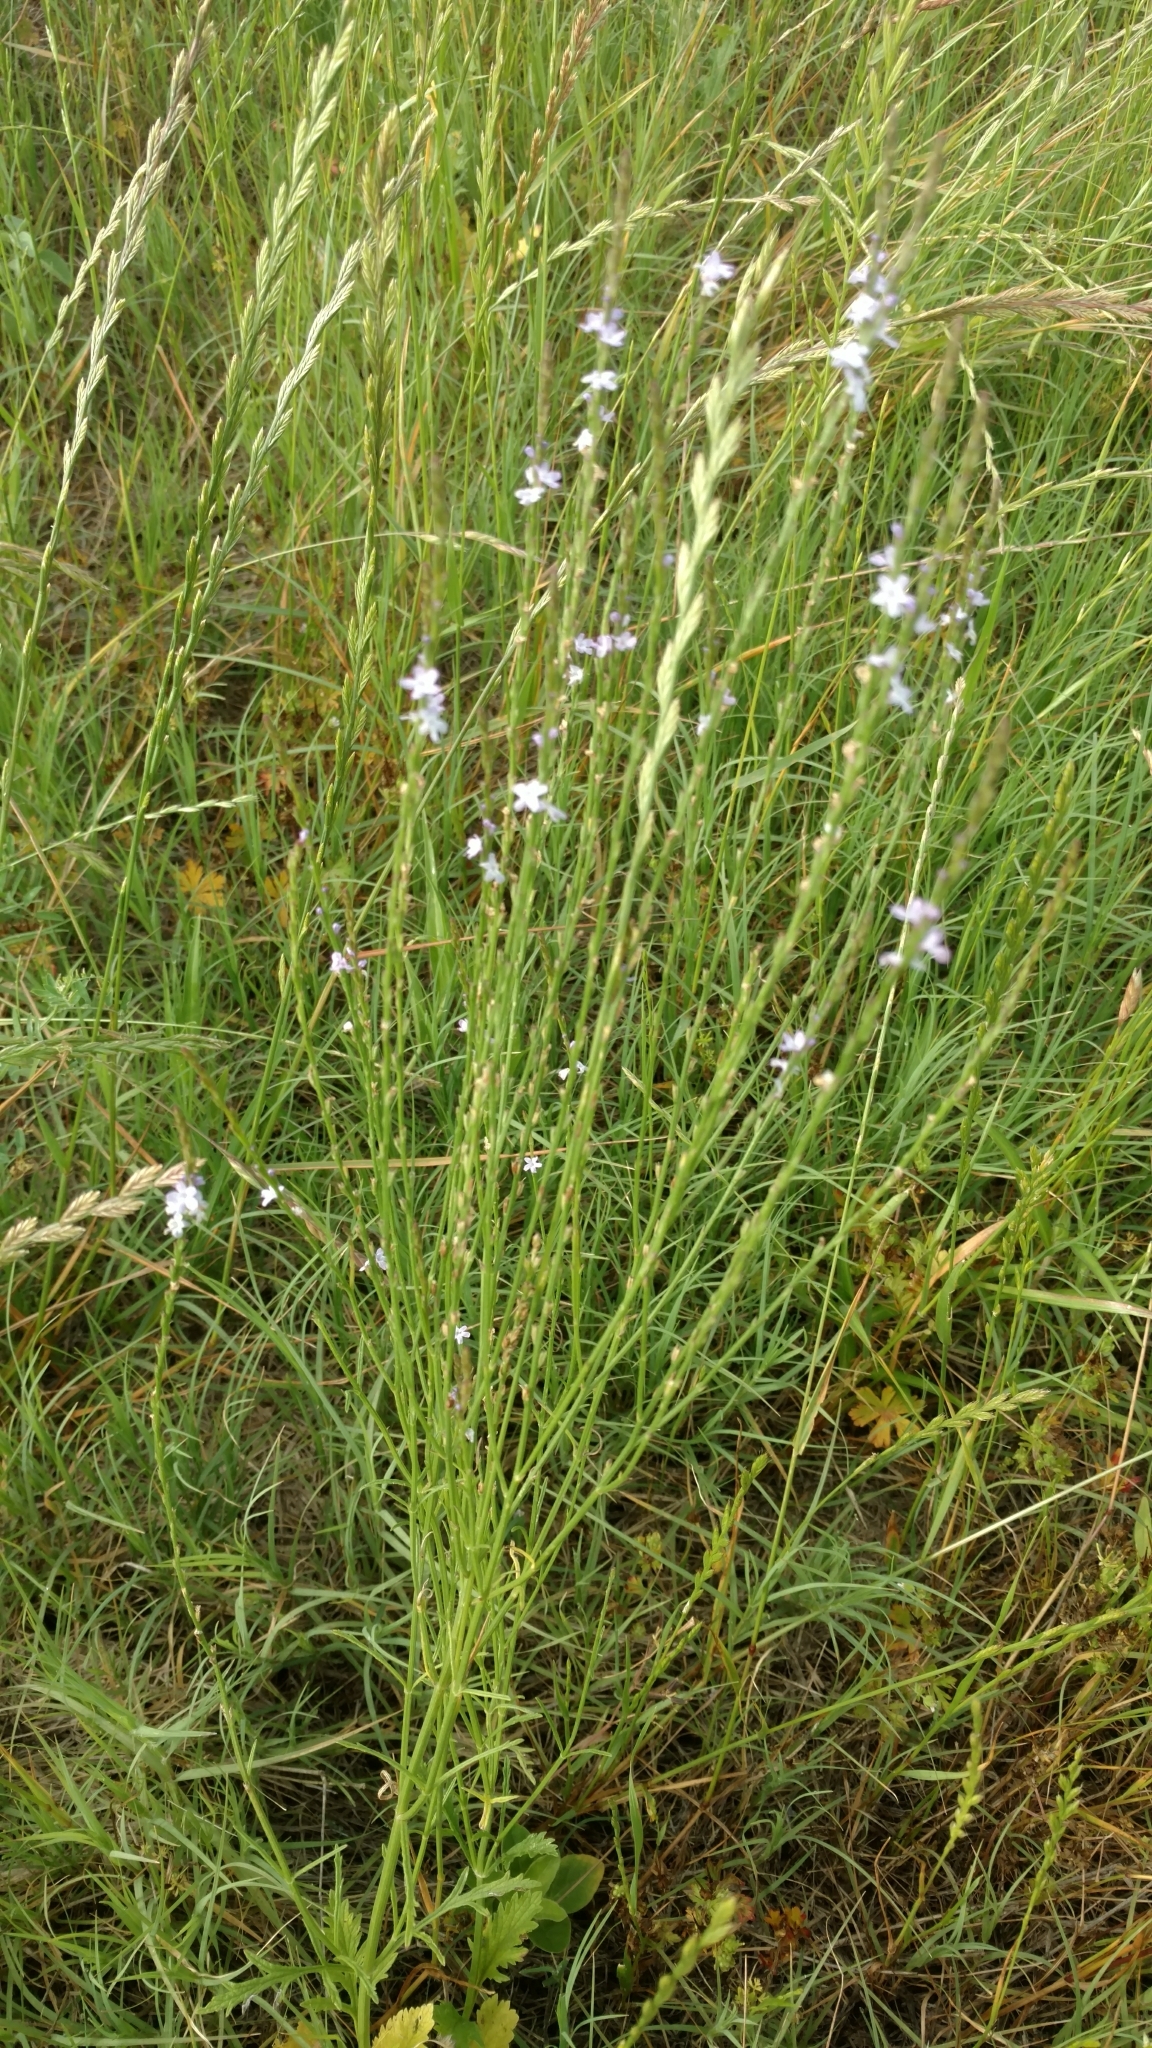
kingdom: Plantae
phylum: Tracheophyta
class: Magnoliopsida
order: Lamiales
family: Verbenaceae
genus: Verbena
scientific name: Verbena halei
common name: Texas vervain
